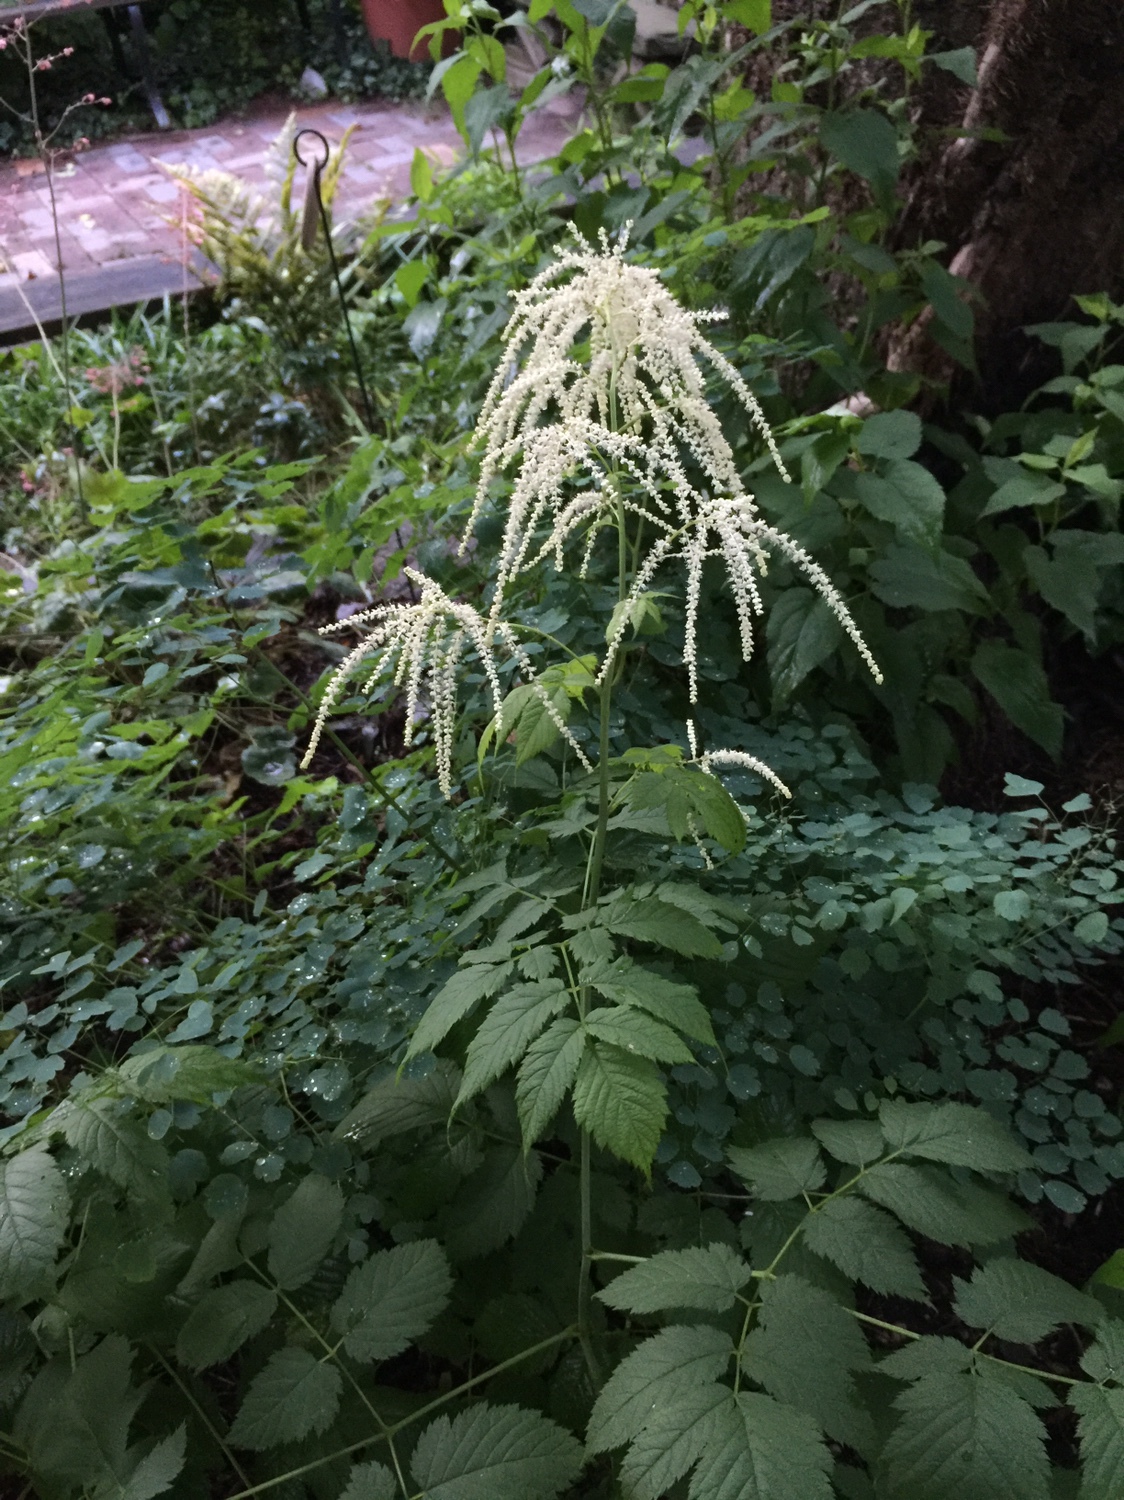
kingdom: Plantae
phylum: Tracheophyta
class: Magnoliopsida
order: Rosales
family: Rosaceae
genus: Aruncus
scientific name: Aruncus dioicus
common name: Buck's-beard
